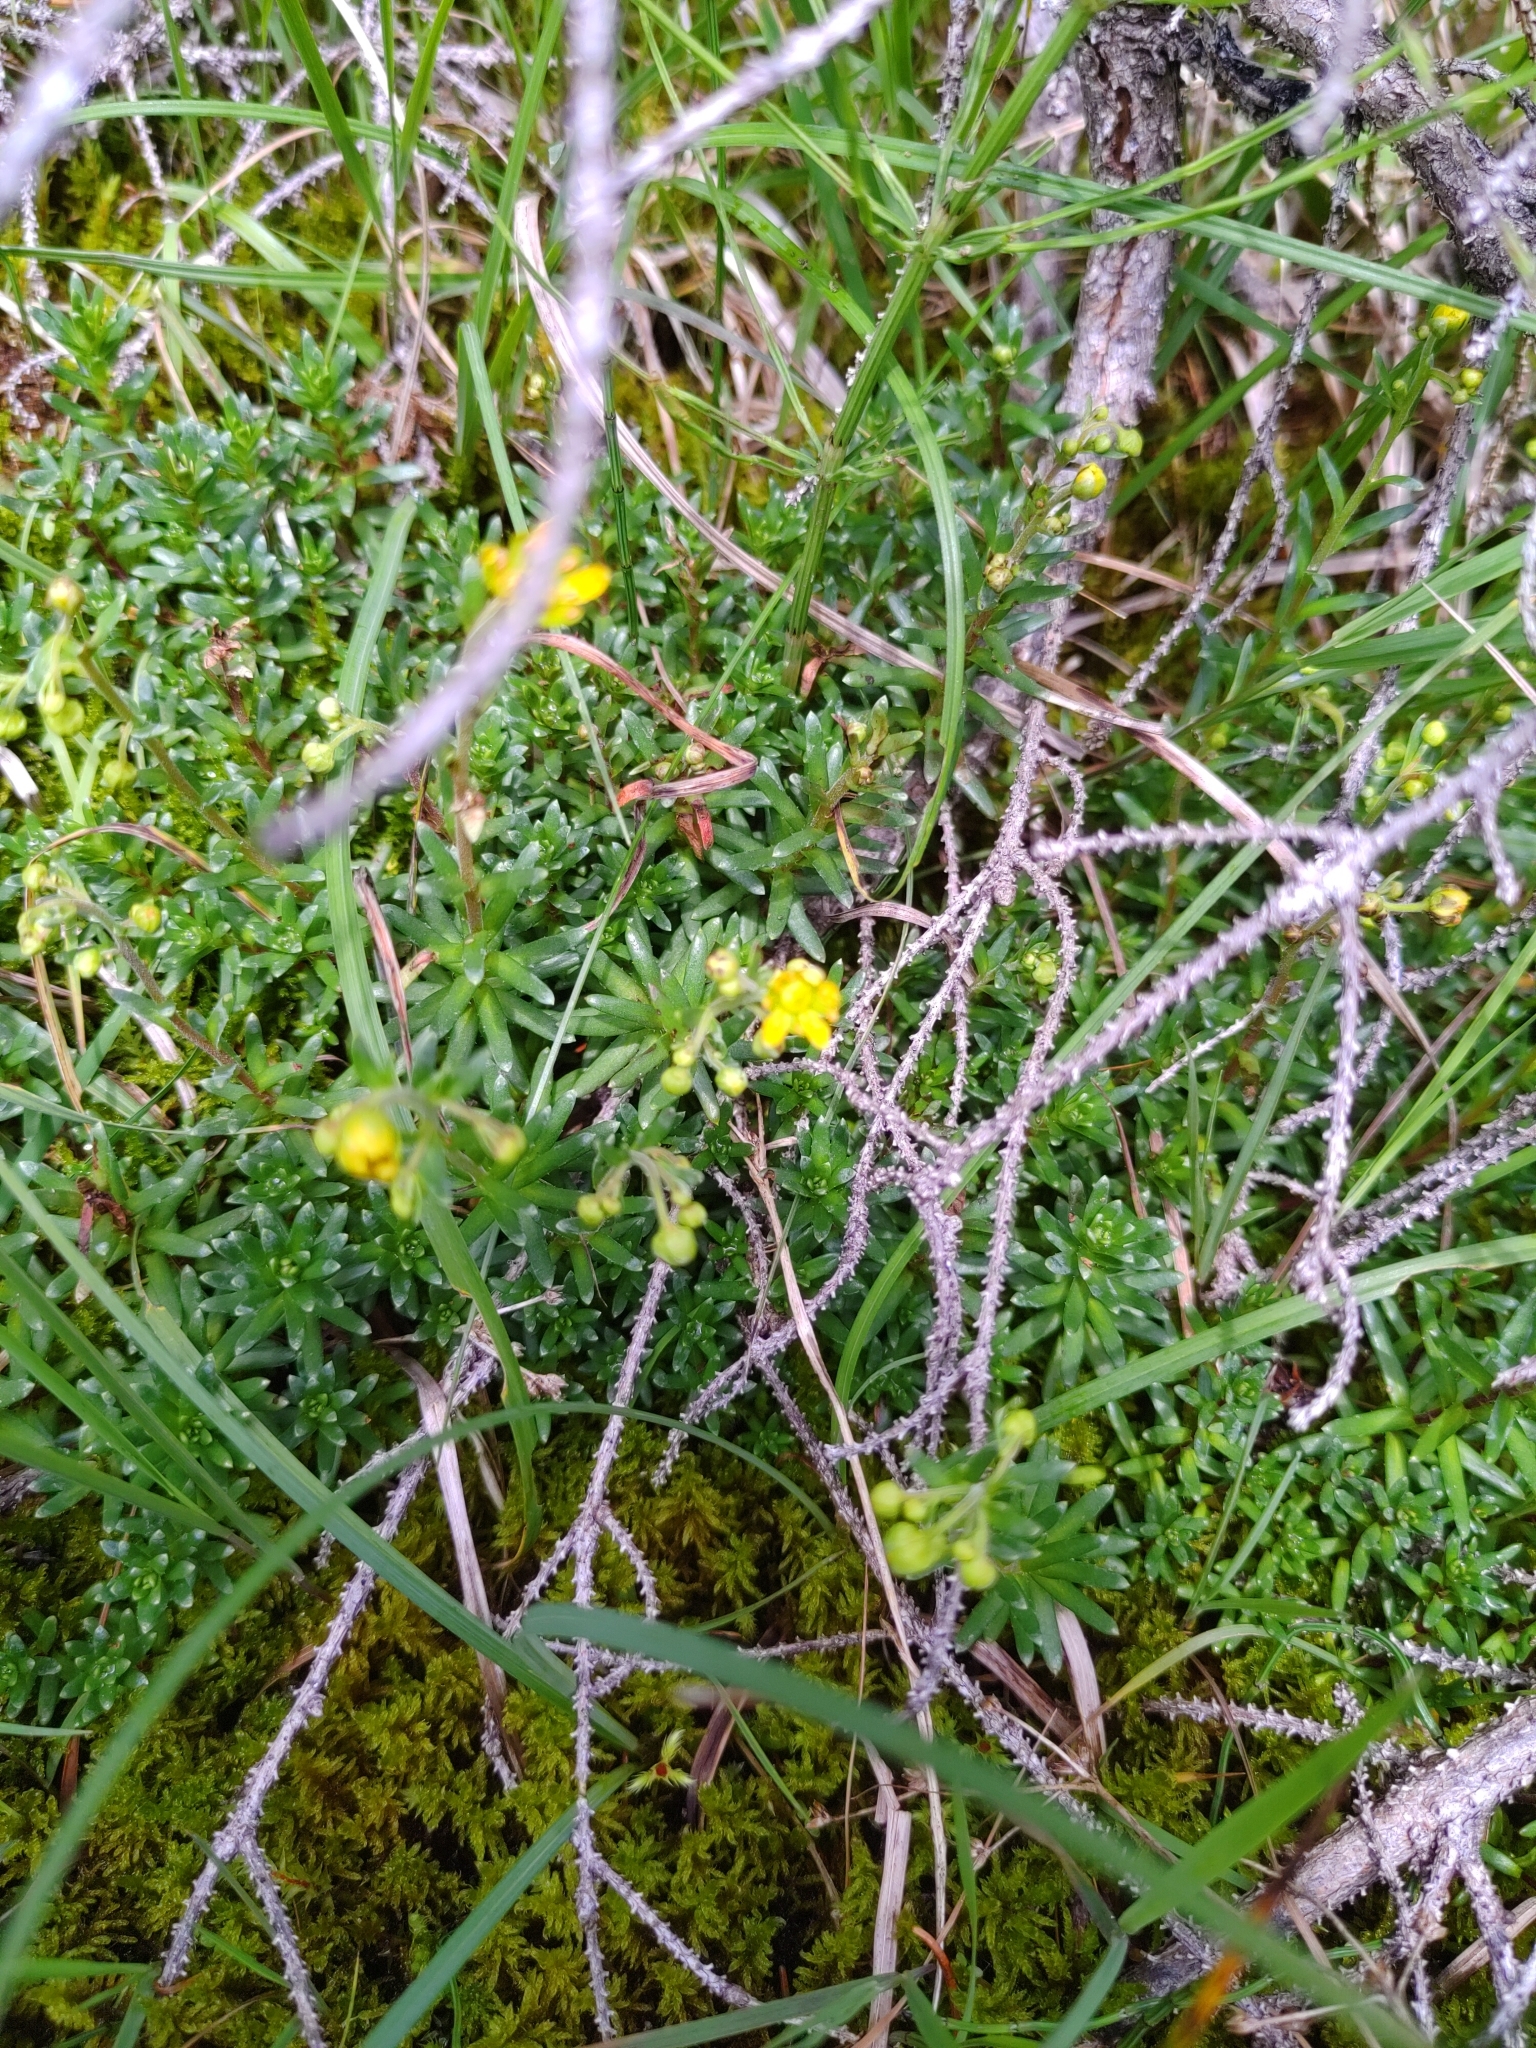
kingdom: Plantae
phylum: Tracheophyta
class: Magnoliopsida
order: Saxifragales
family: Saxifragaceae
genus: Saxifraga
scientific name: Saxifraga aizoides
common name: Yellow mountain saxifrage
